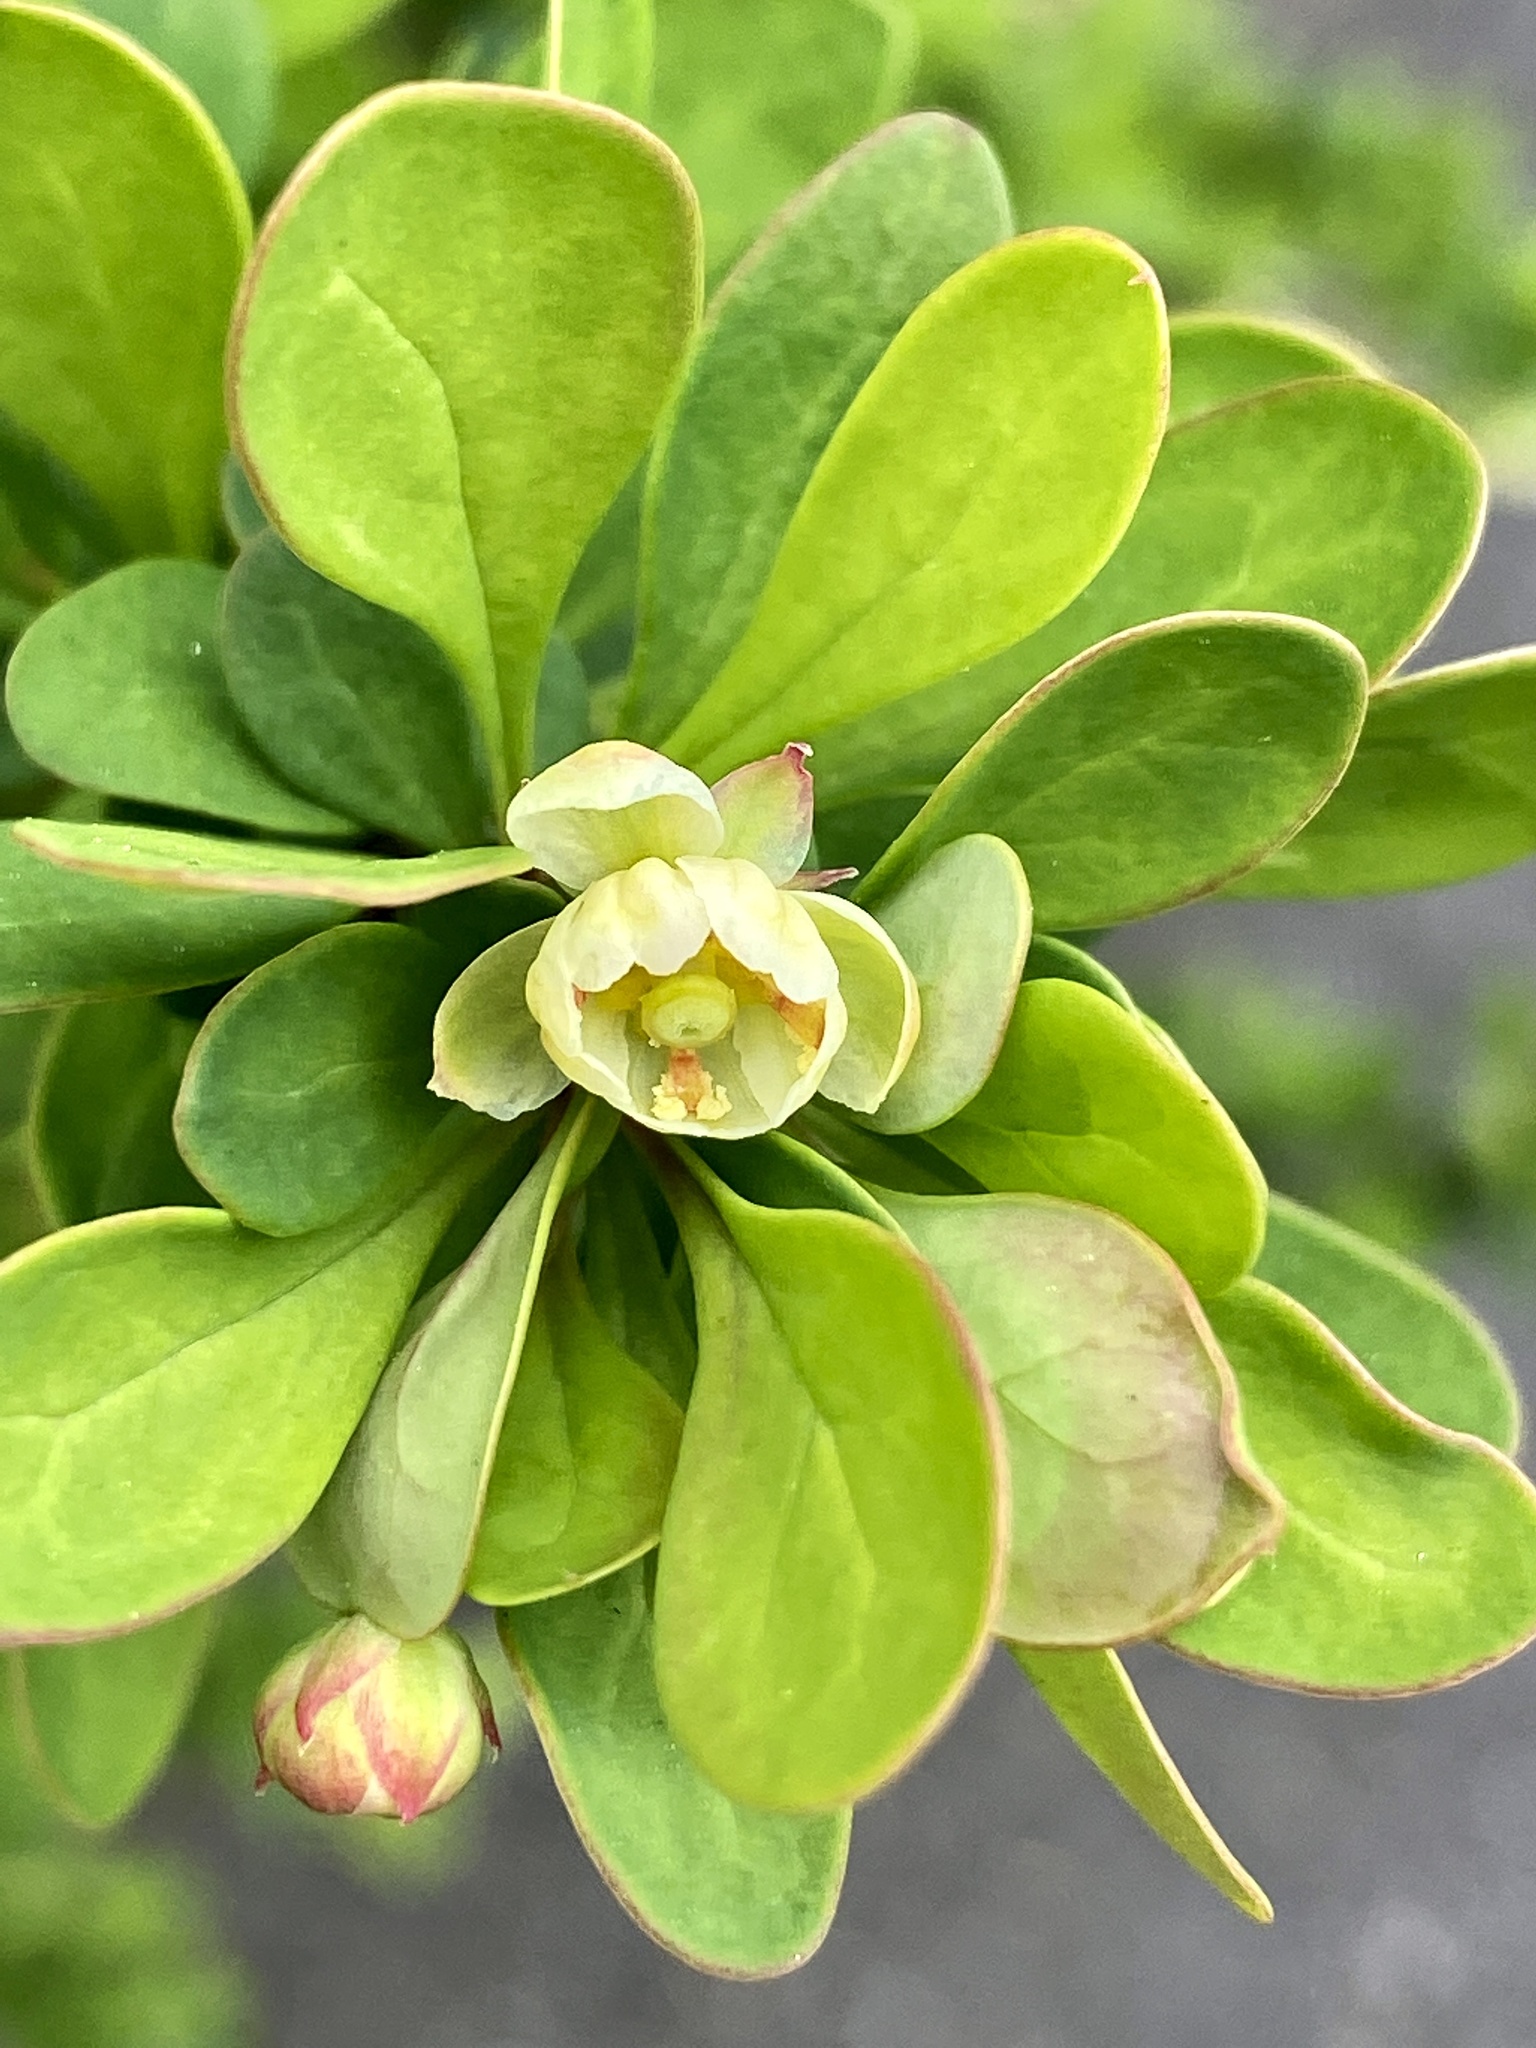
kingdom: Plantae
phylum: Tracheophyta
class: Magnoliopsida
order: Ranunculales
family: Berberidaceae
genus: Berberis
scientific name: Berberis thunbergii
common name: Japanese barberry
